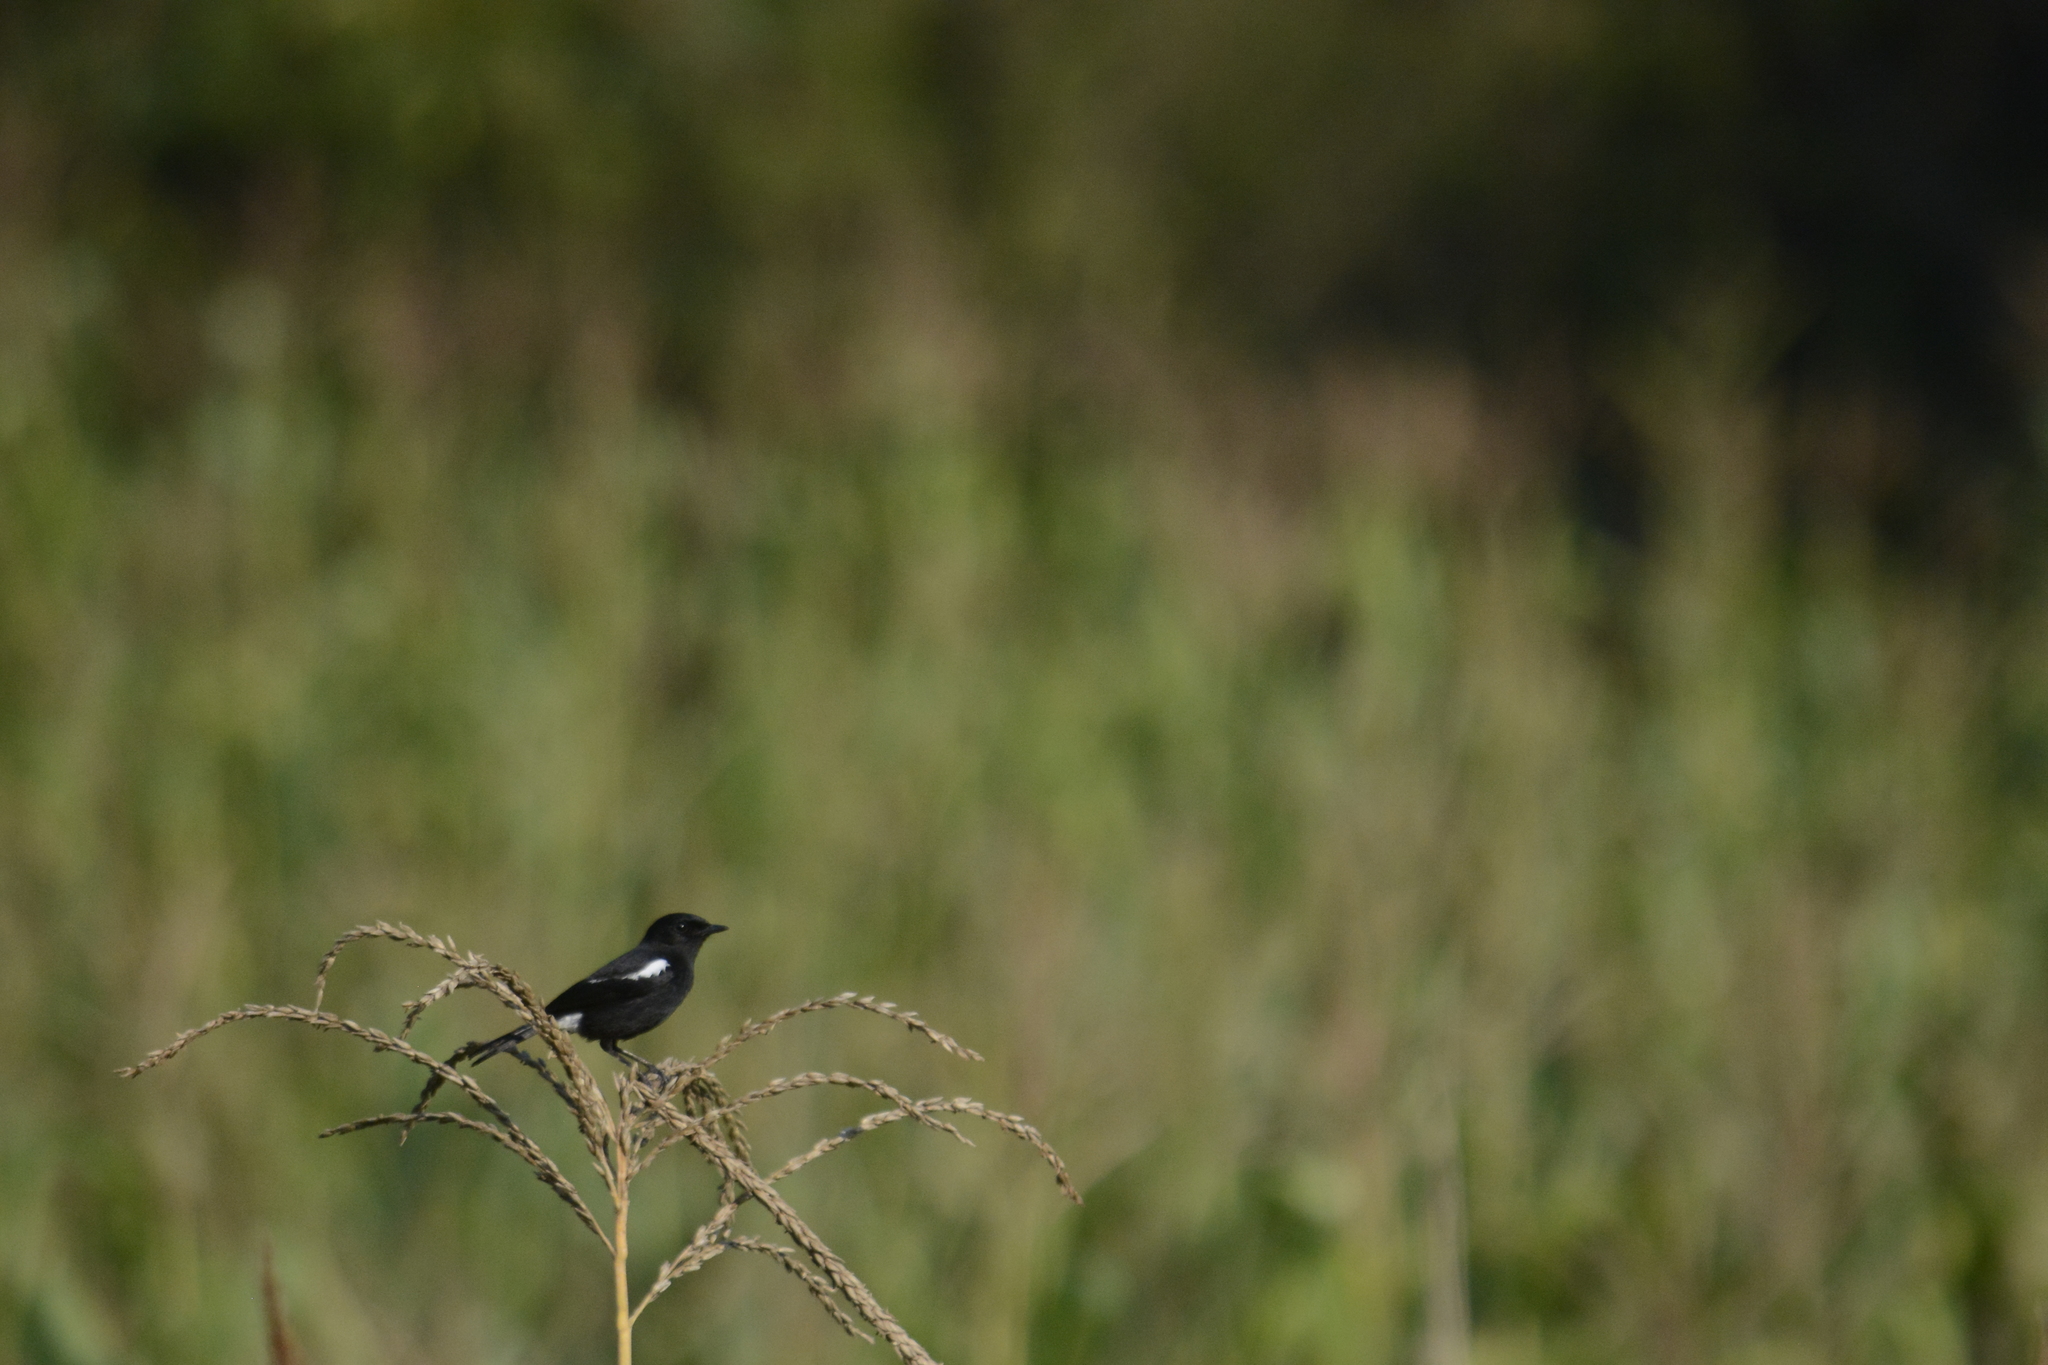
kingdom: Animalia
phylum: Chordata
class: Aves
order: Passeriformes
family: Muscicapidae
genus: Saxicola
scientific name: Saxicola caprata
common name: Pied bush chat
